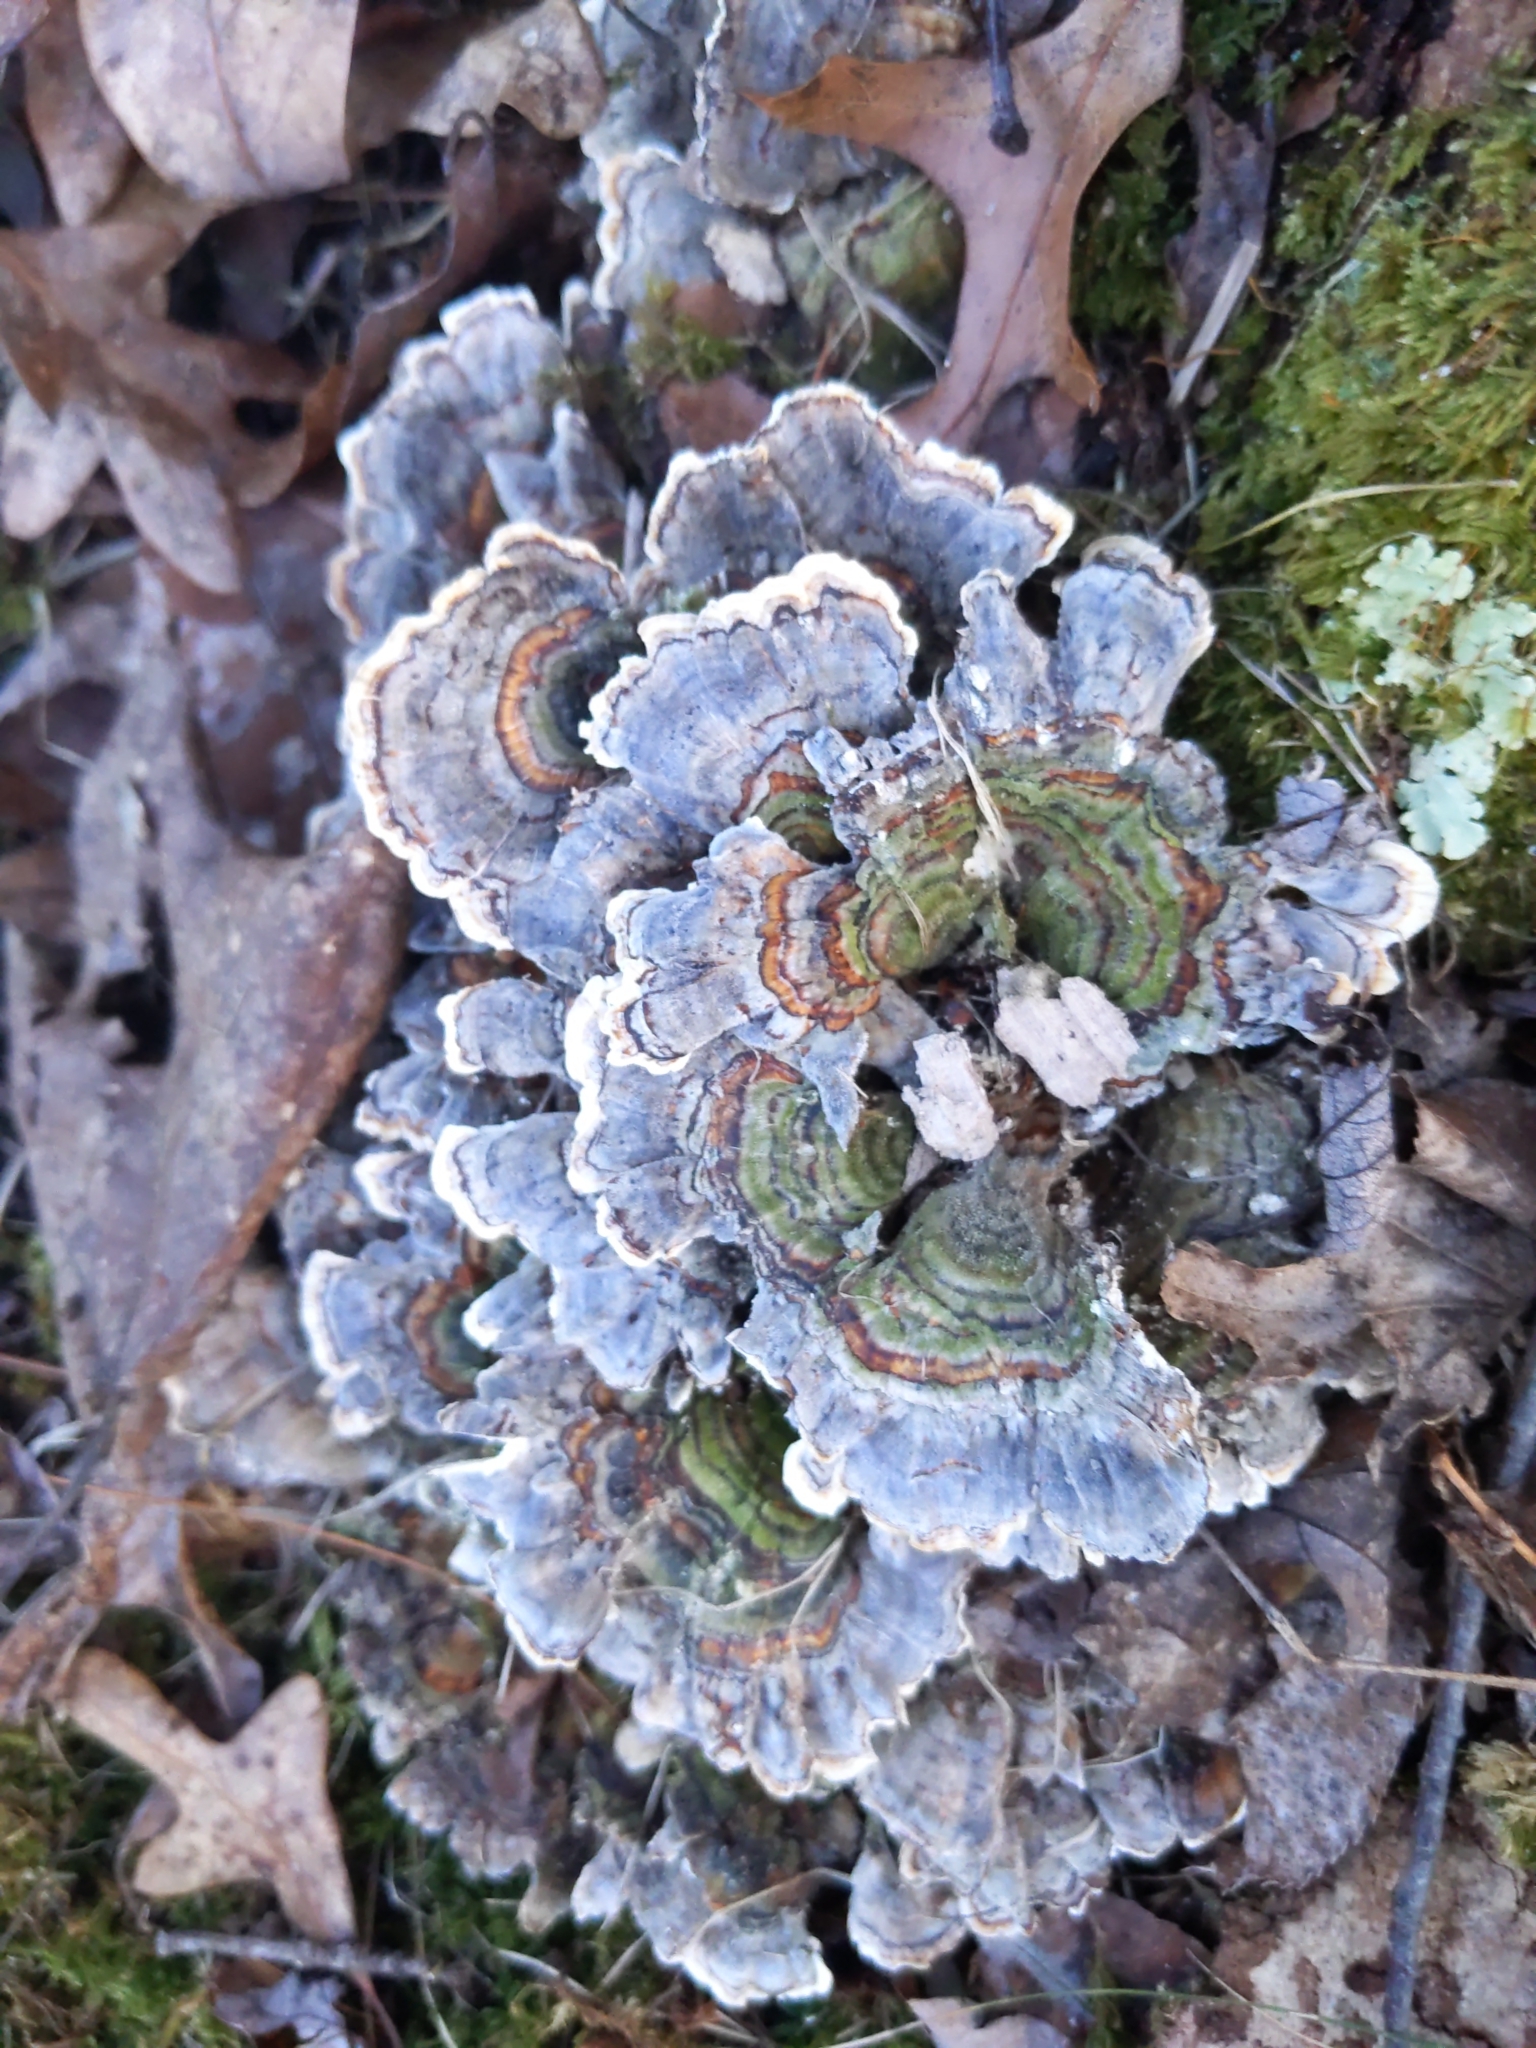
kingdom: Fungi
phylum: Basidiomycota
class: Agaricomycetes
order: Polyporales
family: Polyporaceae
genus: Trametes
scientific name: Trametes versicolor
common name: Turkeytail
